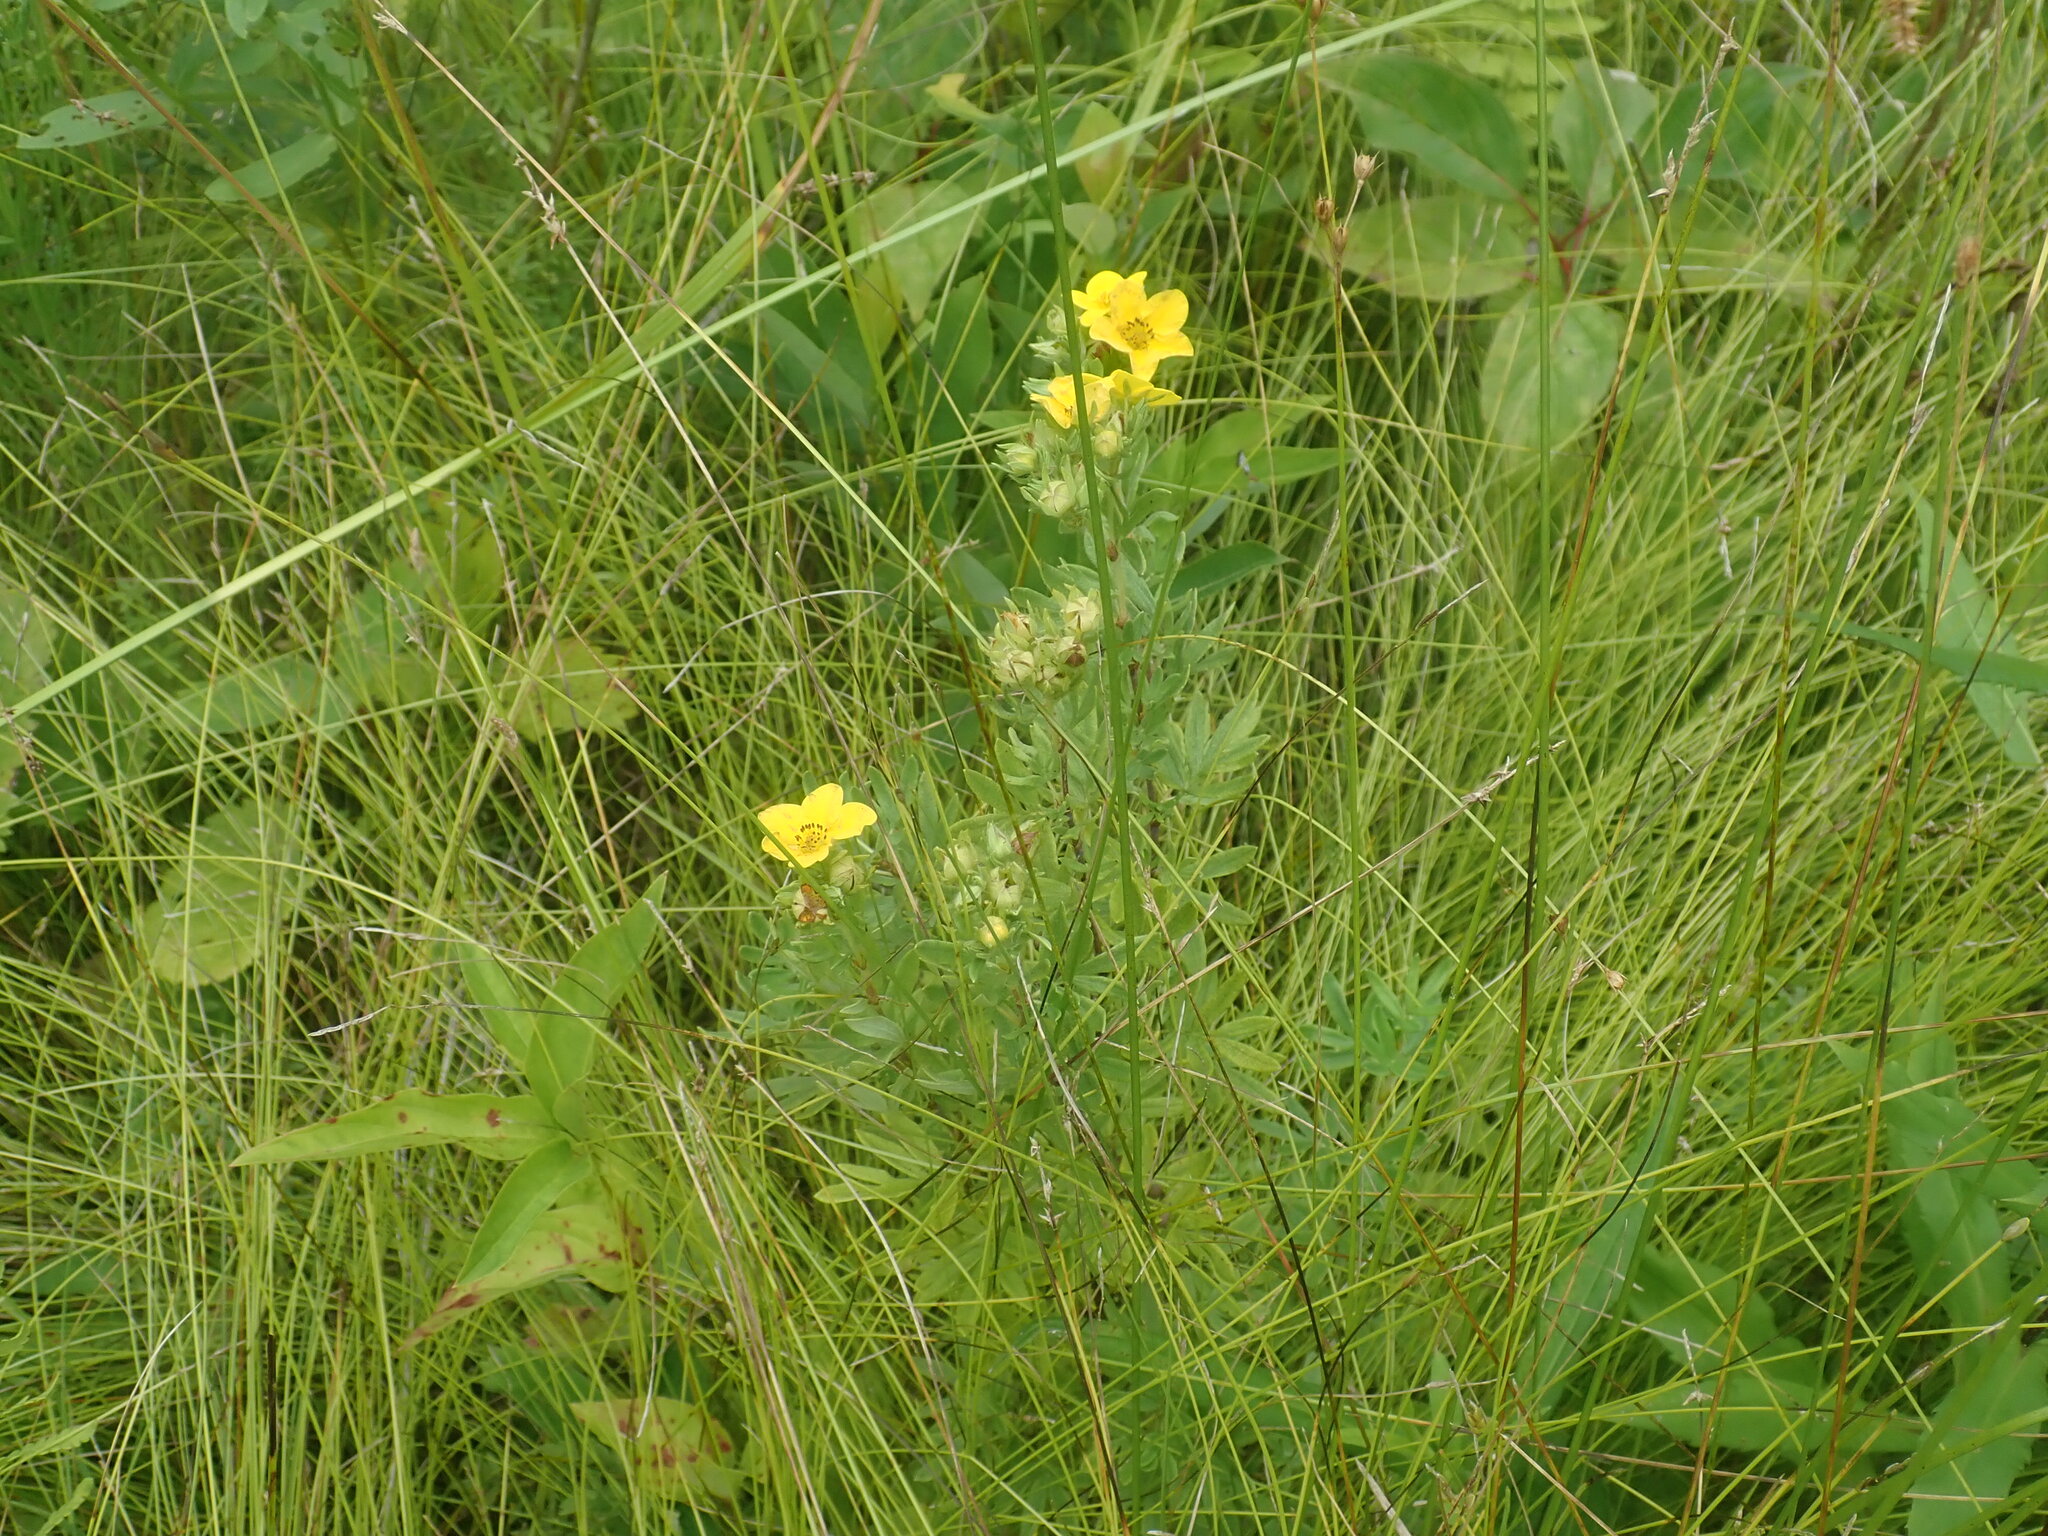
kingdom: Plantae
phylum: Tracheophyta
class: Magnoliopsida
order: Rosales
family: Rosaceae
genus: Dasiphora
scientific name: Dasiphora fruticosa
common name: Shrubby cinquefoil
